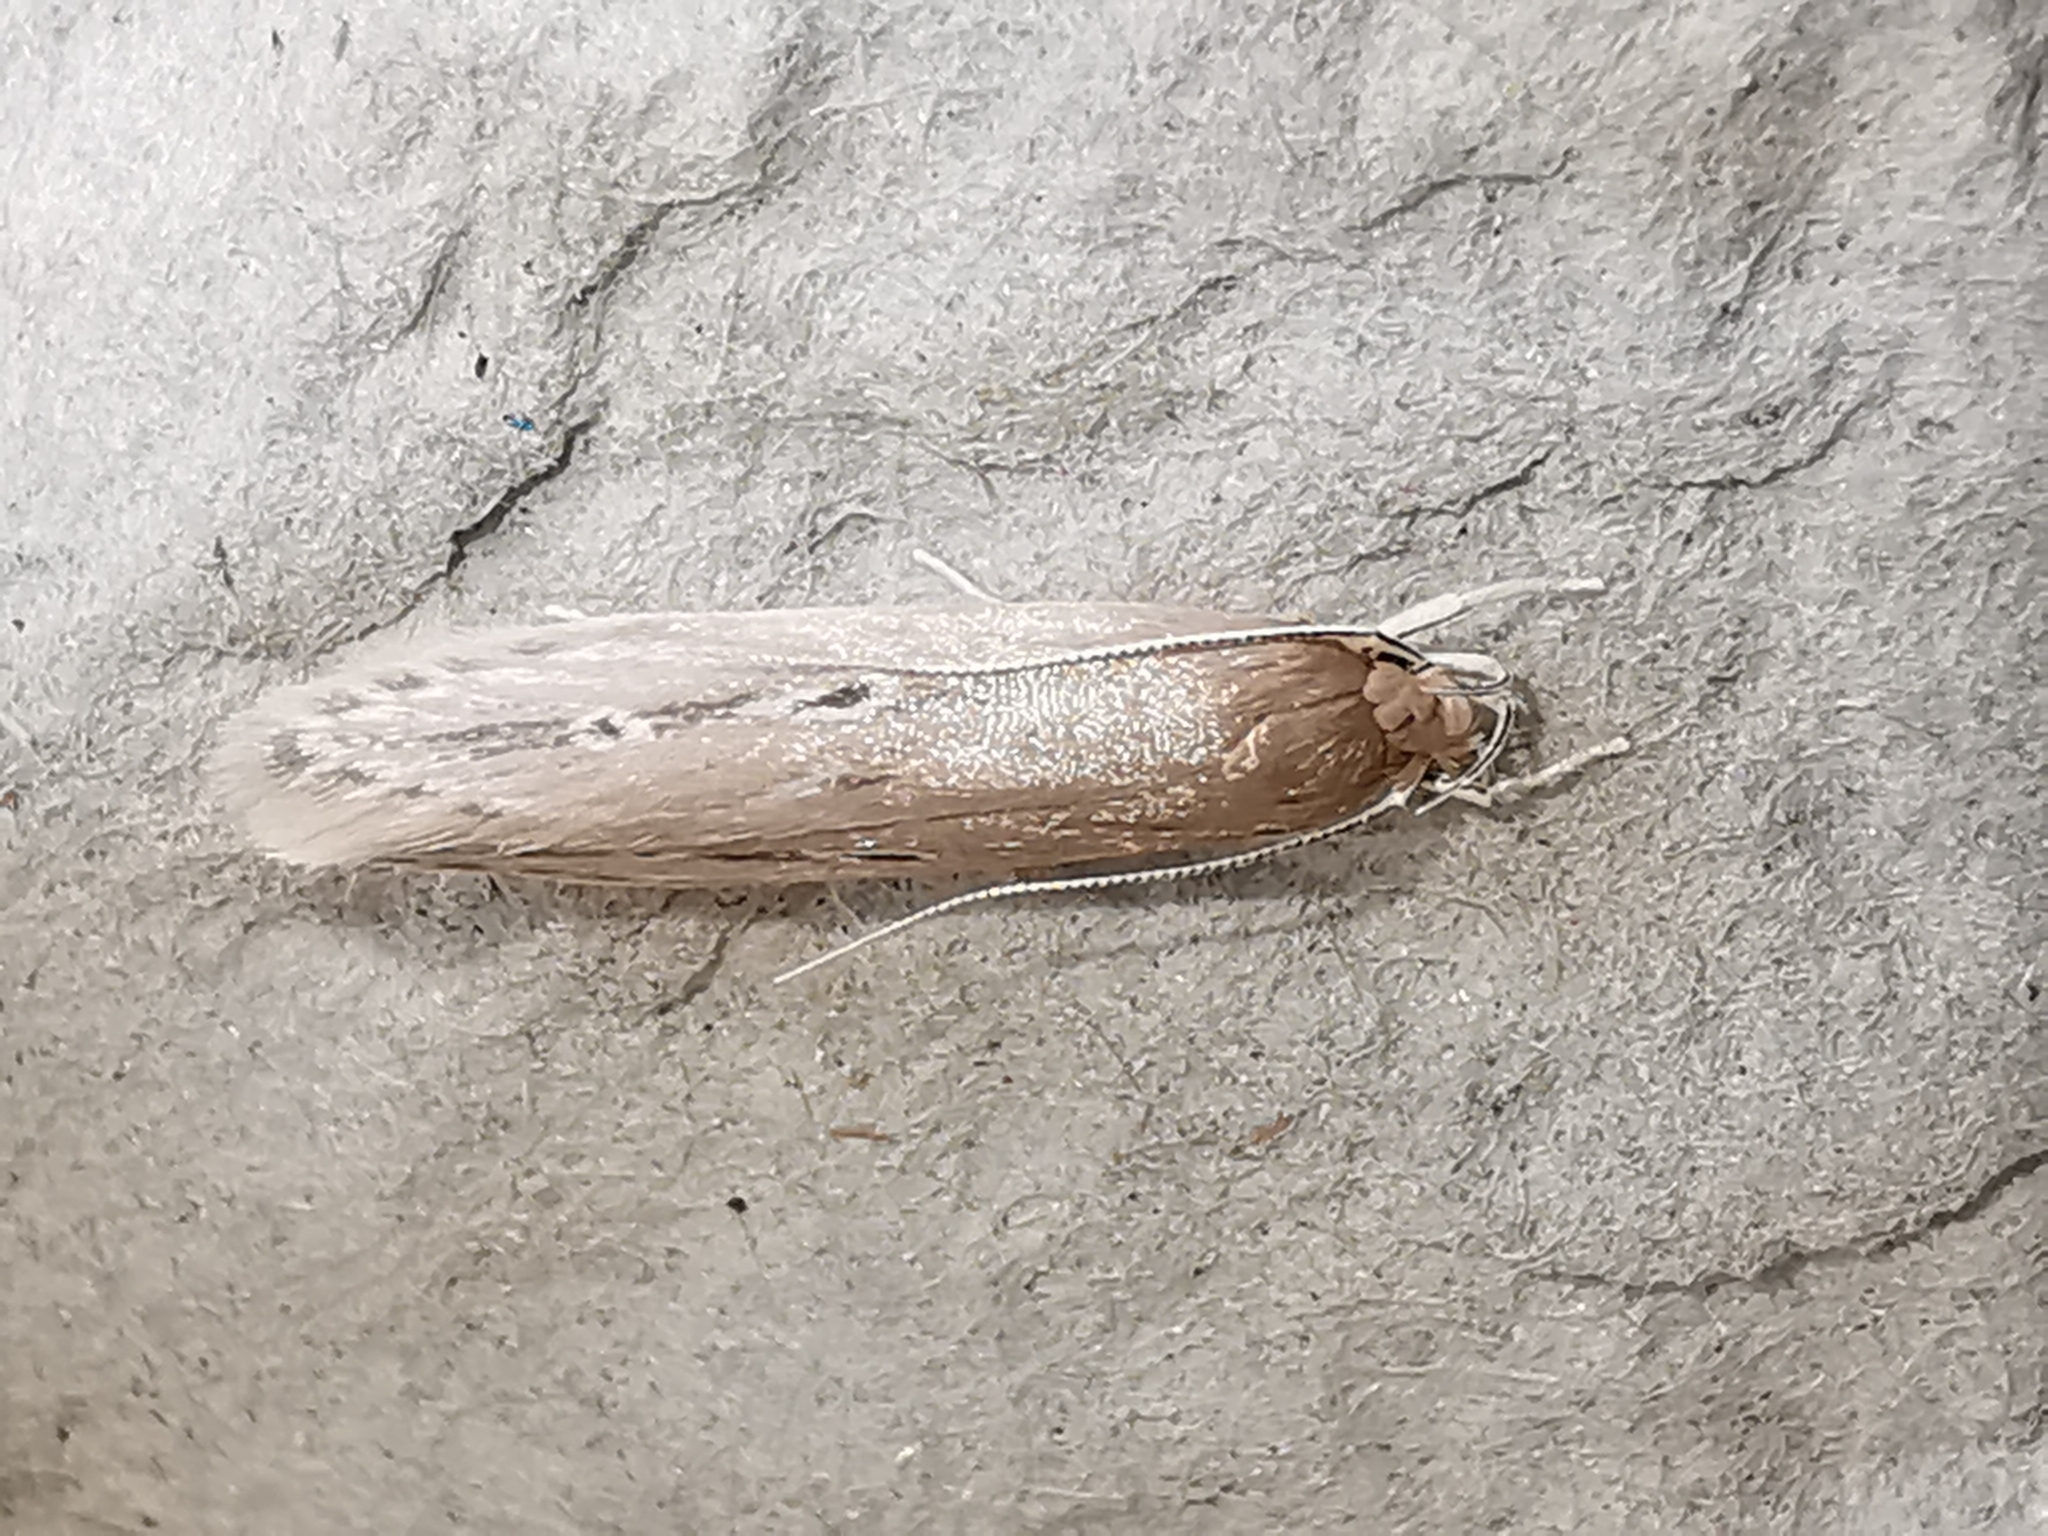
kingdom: Animalia
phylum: Arthropoda
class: Insecta
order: Lepidoptera
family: Cosmopterigidae
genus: Limnaecia
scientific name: Limnaecia phragmitella
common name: Bulrush cosmet
